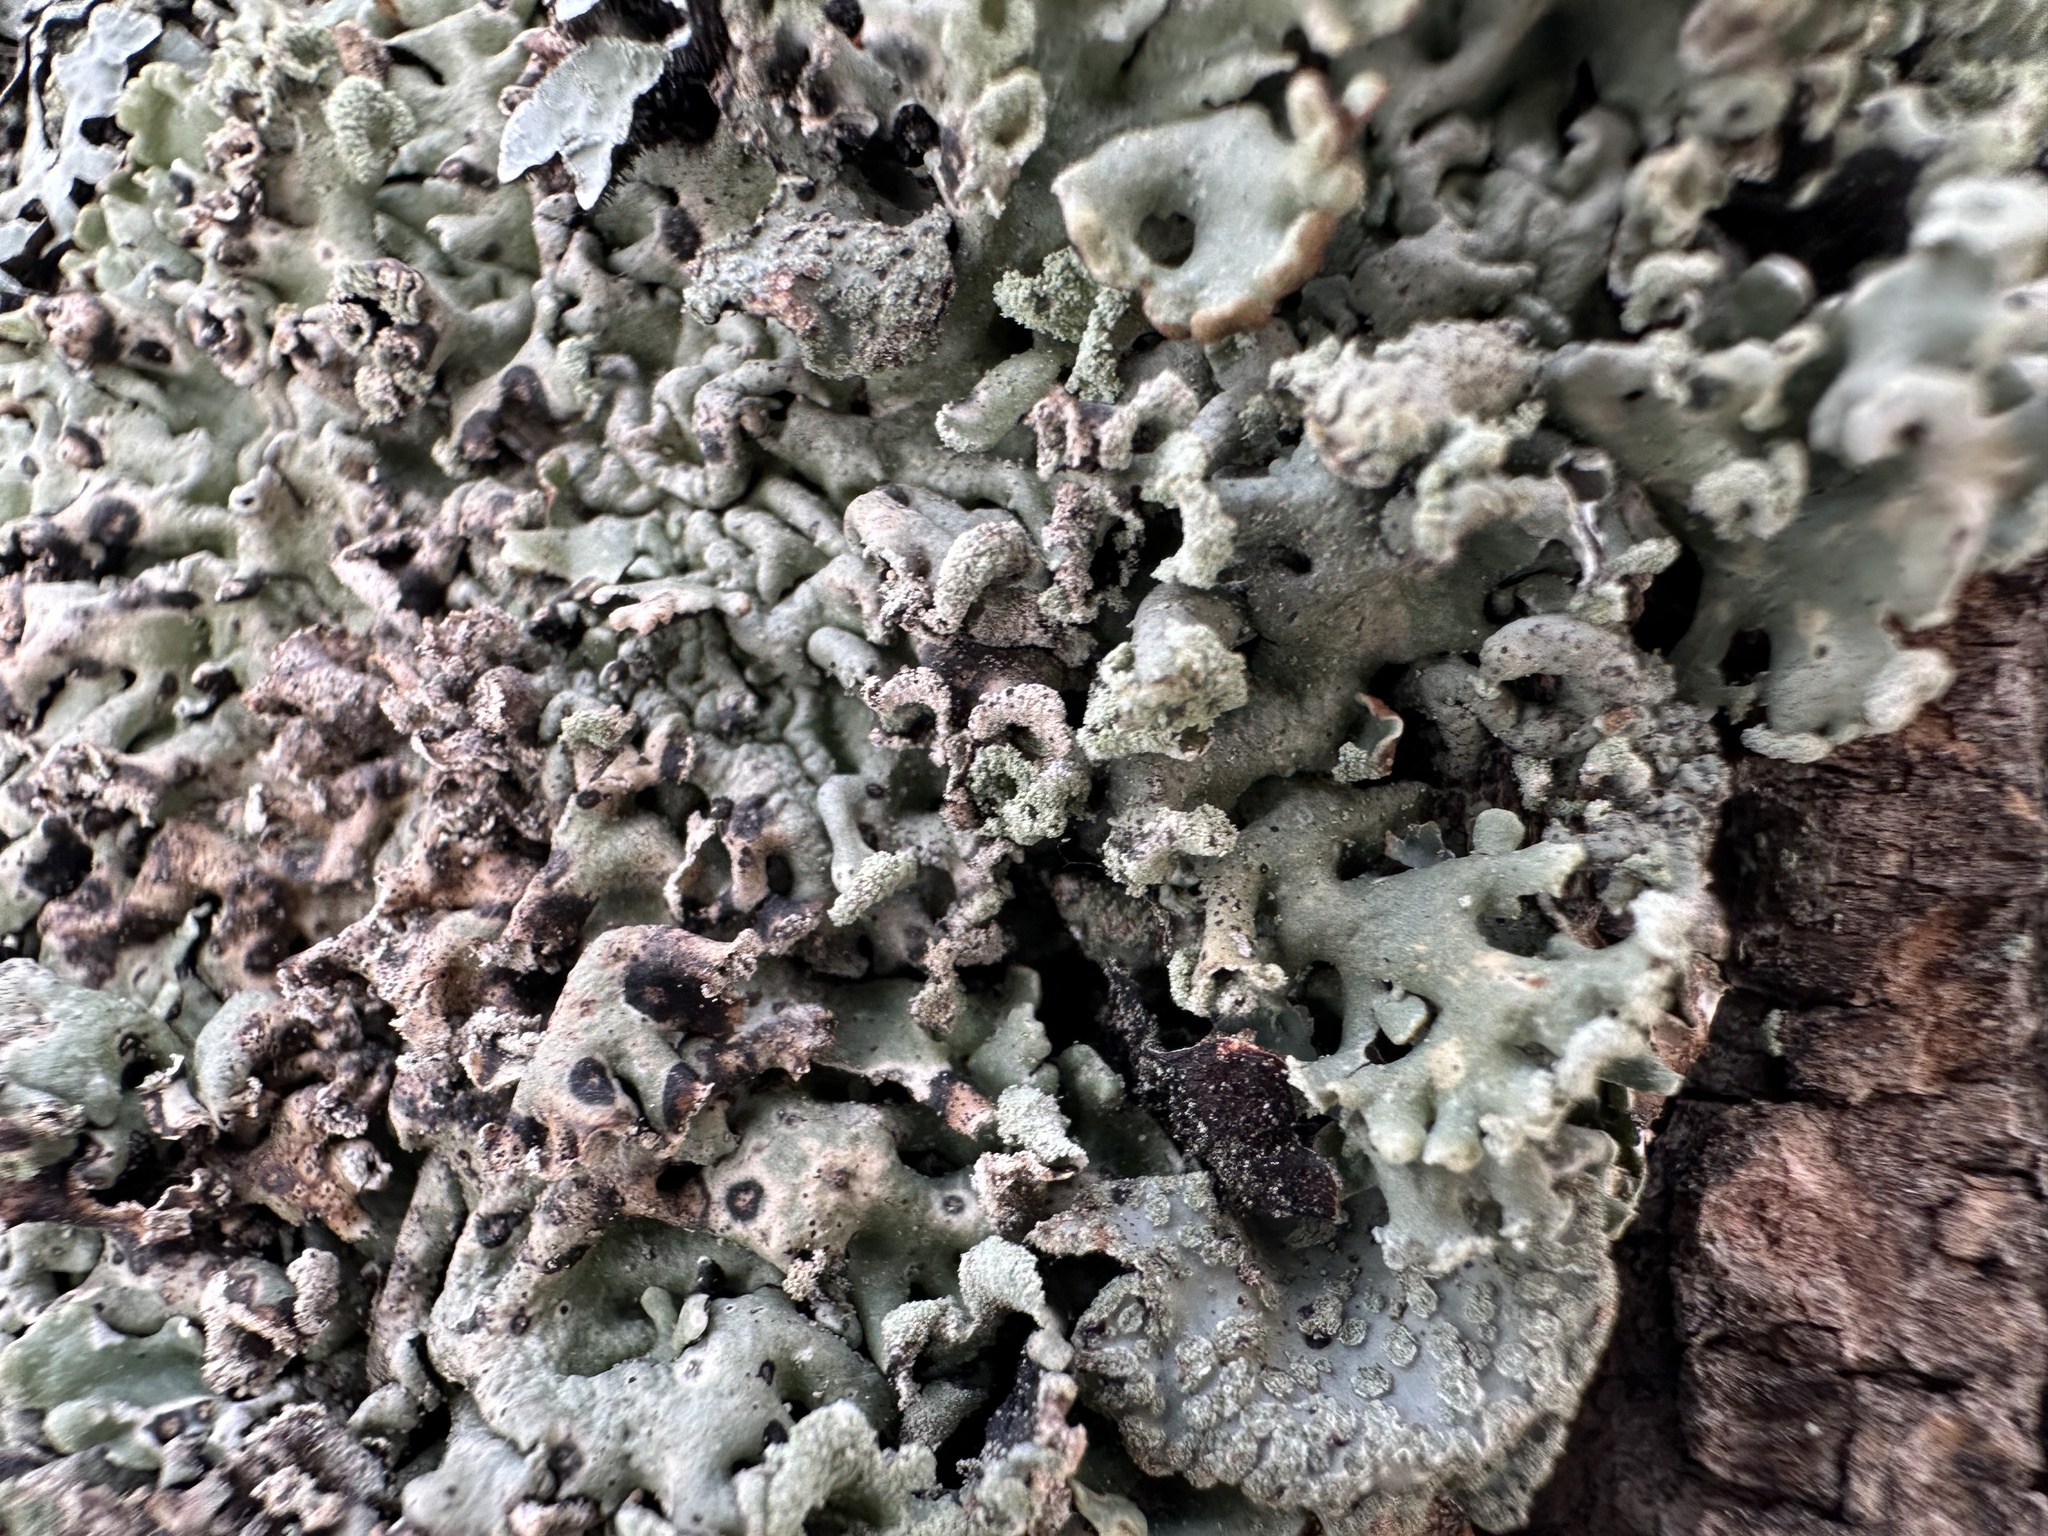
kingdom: Fungi
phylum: Ascomycota
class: Lecanoromycetes
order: Lecanorales
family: Parmeliaceae
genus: Hypogymnia
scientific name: Hypogymnia physodes
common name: Dark crottle
